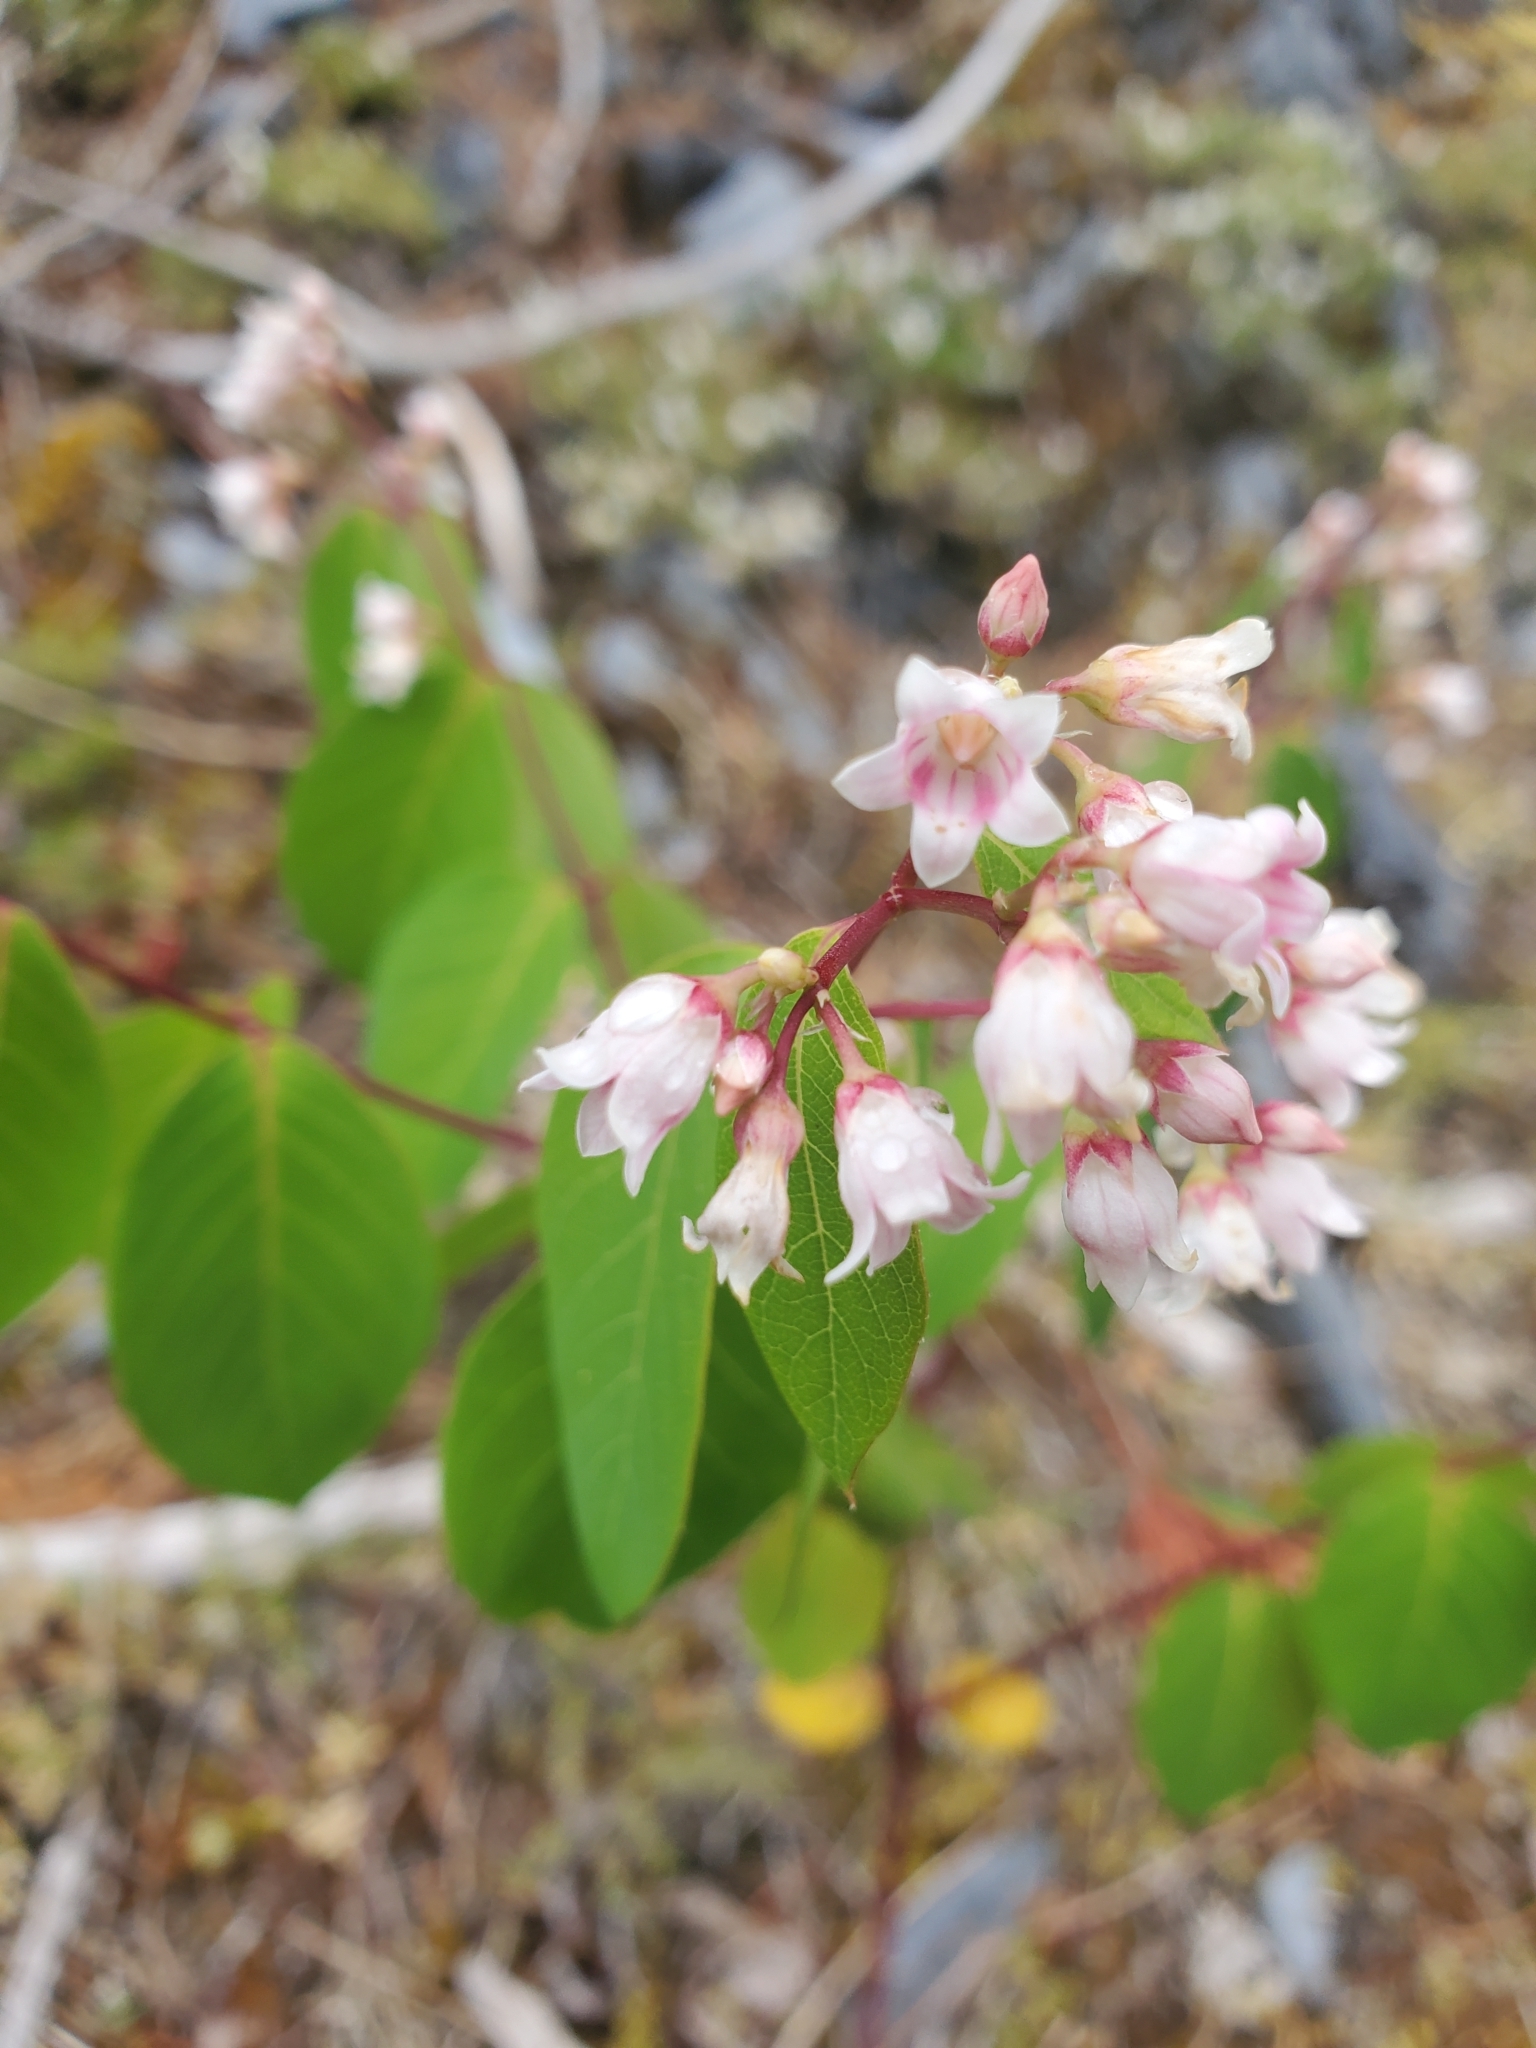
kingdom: Plantae
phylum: Tracheophyta
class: Magnoliopsida
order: Gentianales
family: Apocynaceae
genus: Apocynum
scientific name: Apocynum androsaemifolium
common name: Spreading dogbane
